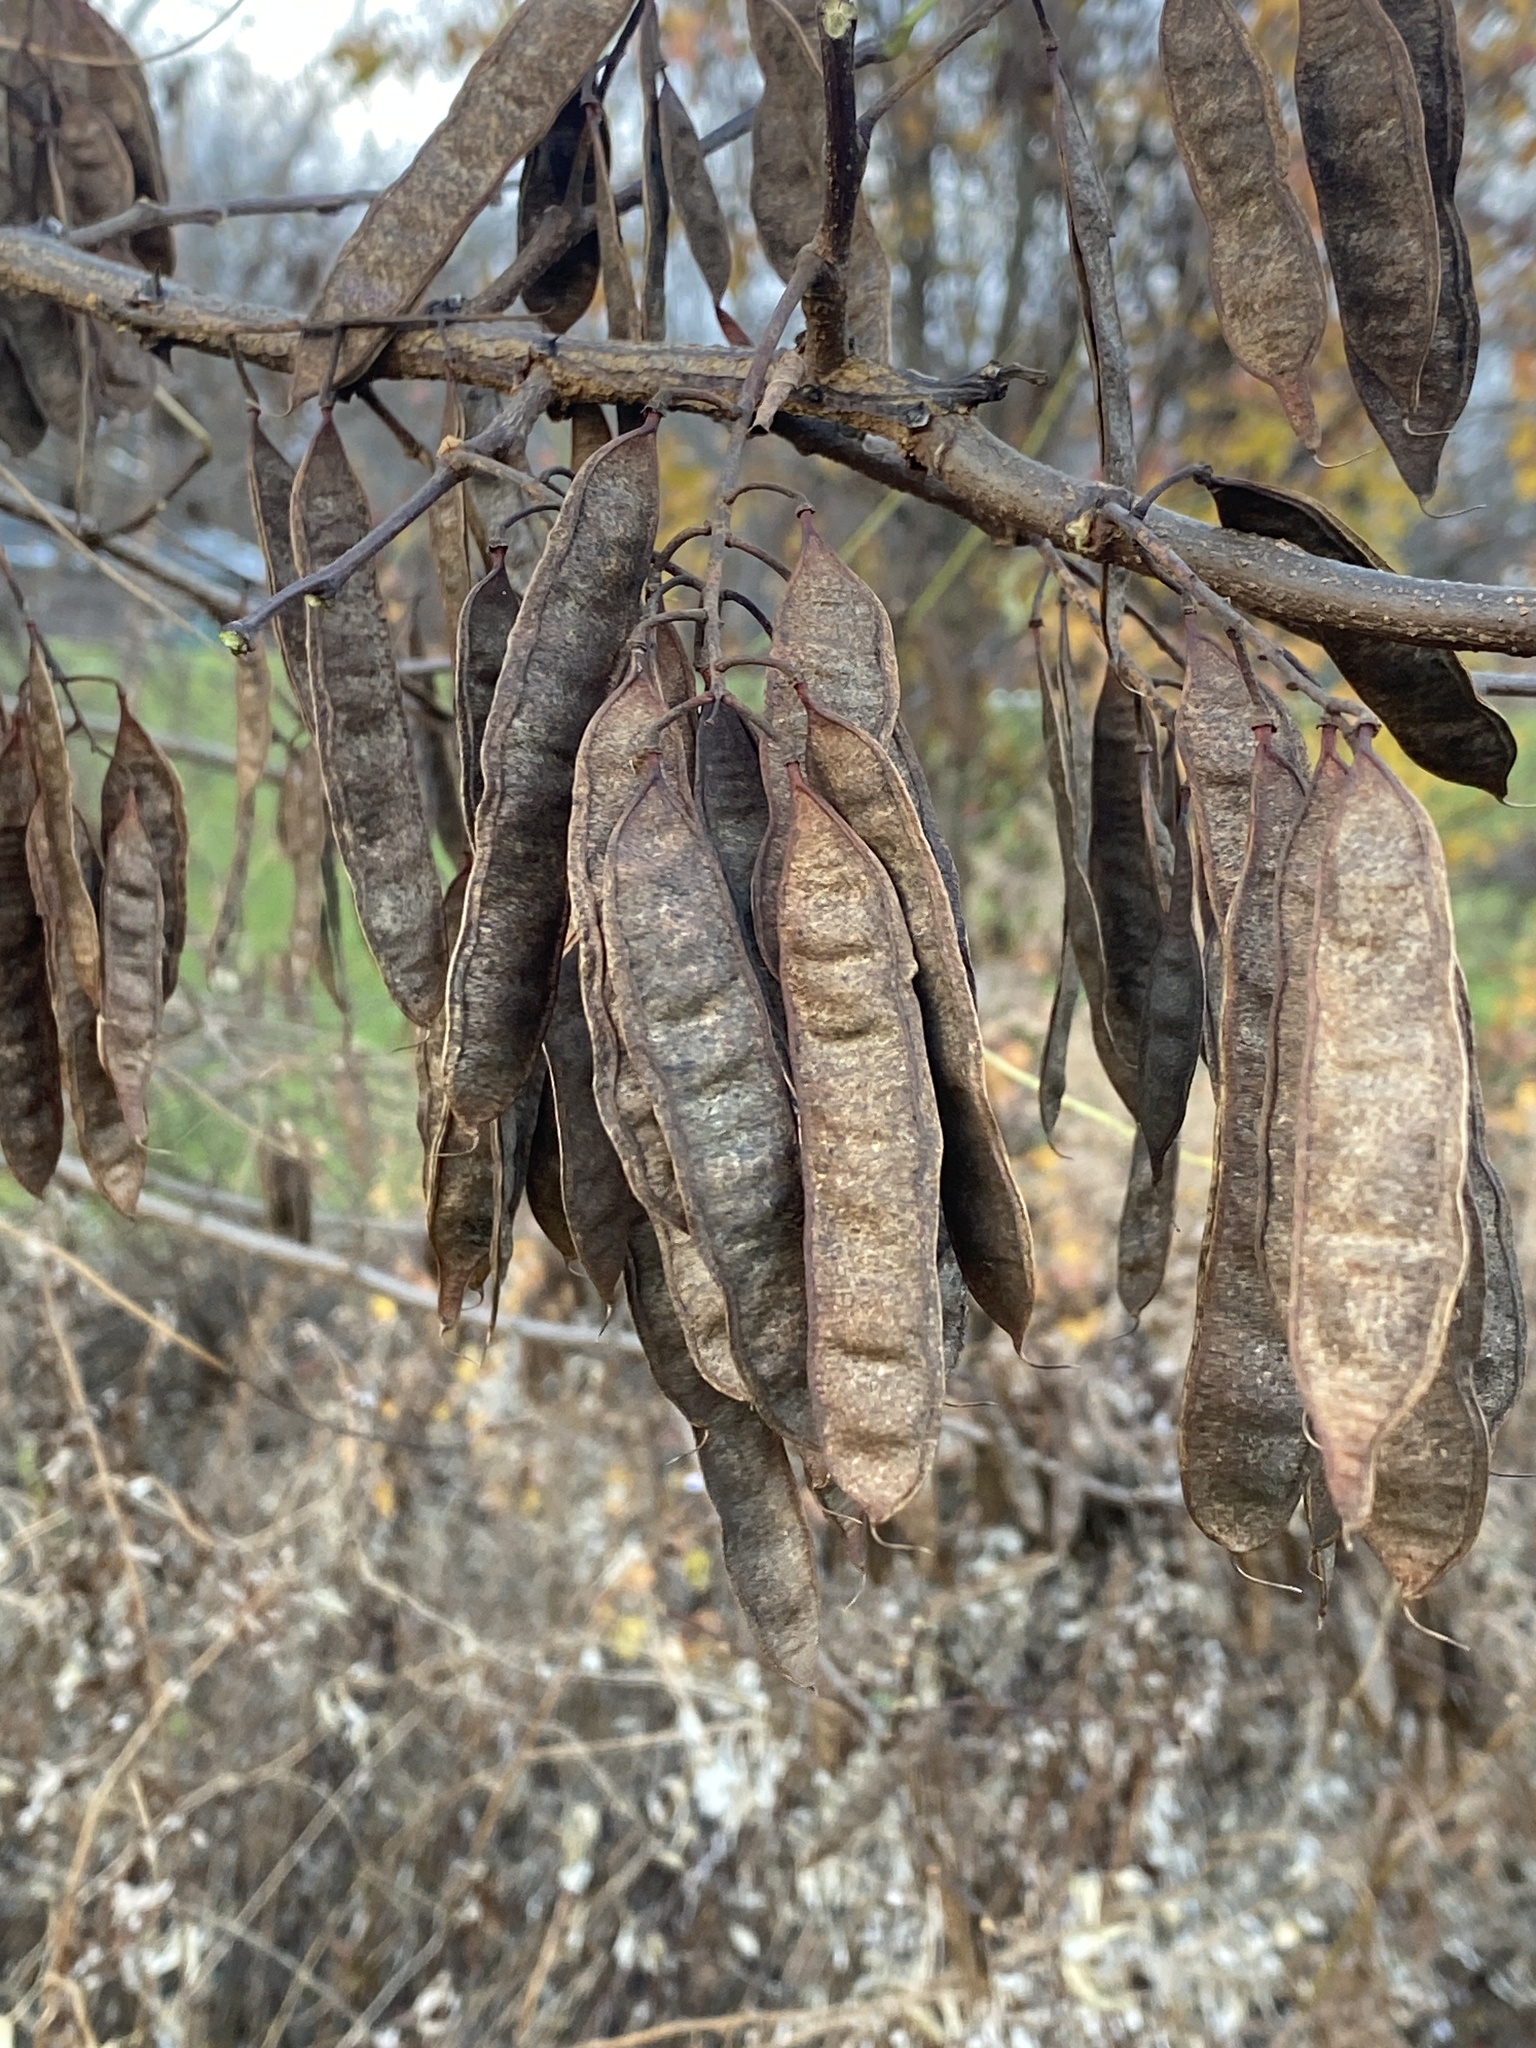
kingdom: Plantae
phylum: Tracheophyta
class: Magnoliopsida
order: Fabales
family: Fabaceae
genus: Robinia
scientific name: Robinia pseudoacacia
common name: Black locust
